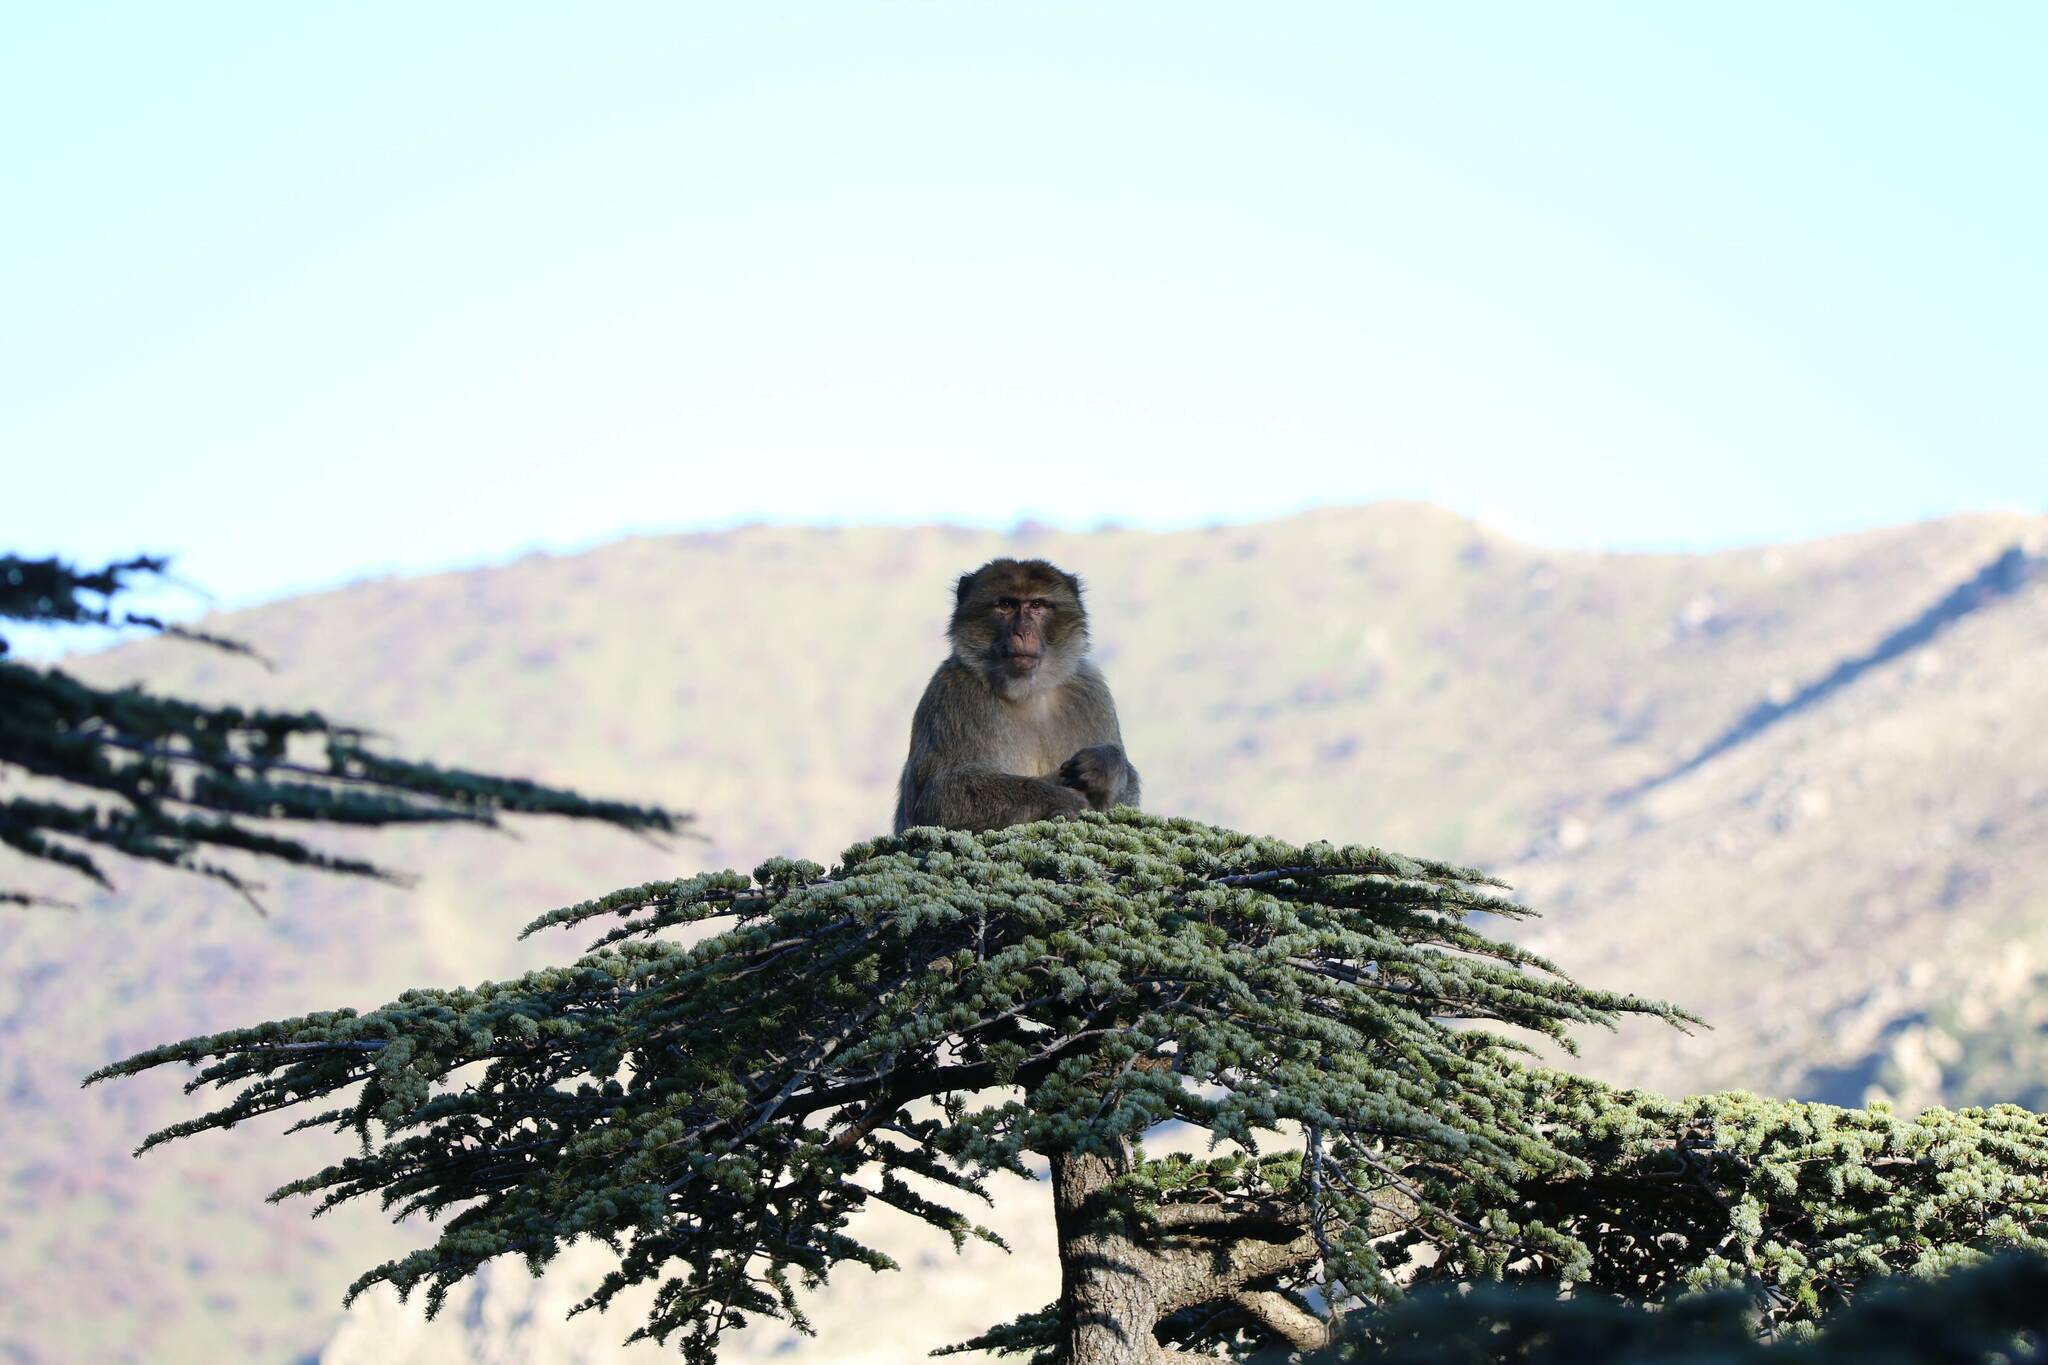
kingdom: Animalia
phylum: Chordata
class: Mammalia
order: Primates
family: Cercopithecidae
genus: Macaca
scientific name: Macaca sylvanus
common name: Barbary macaque
